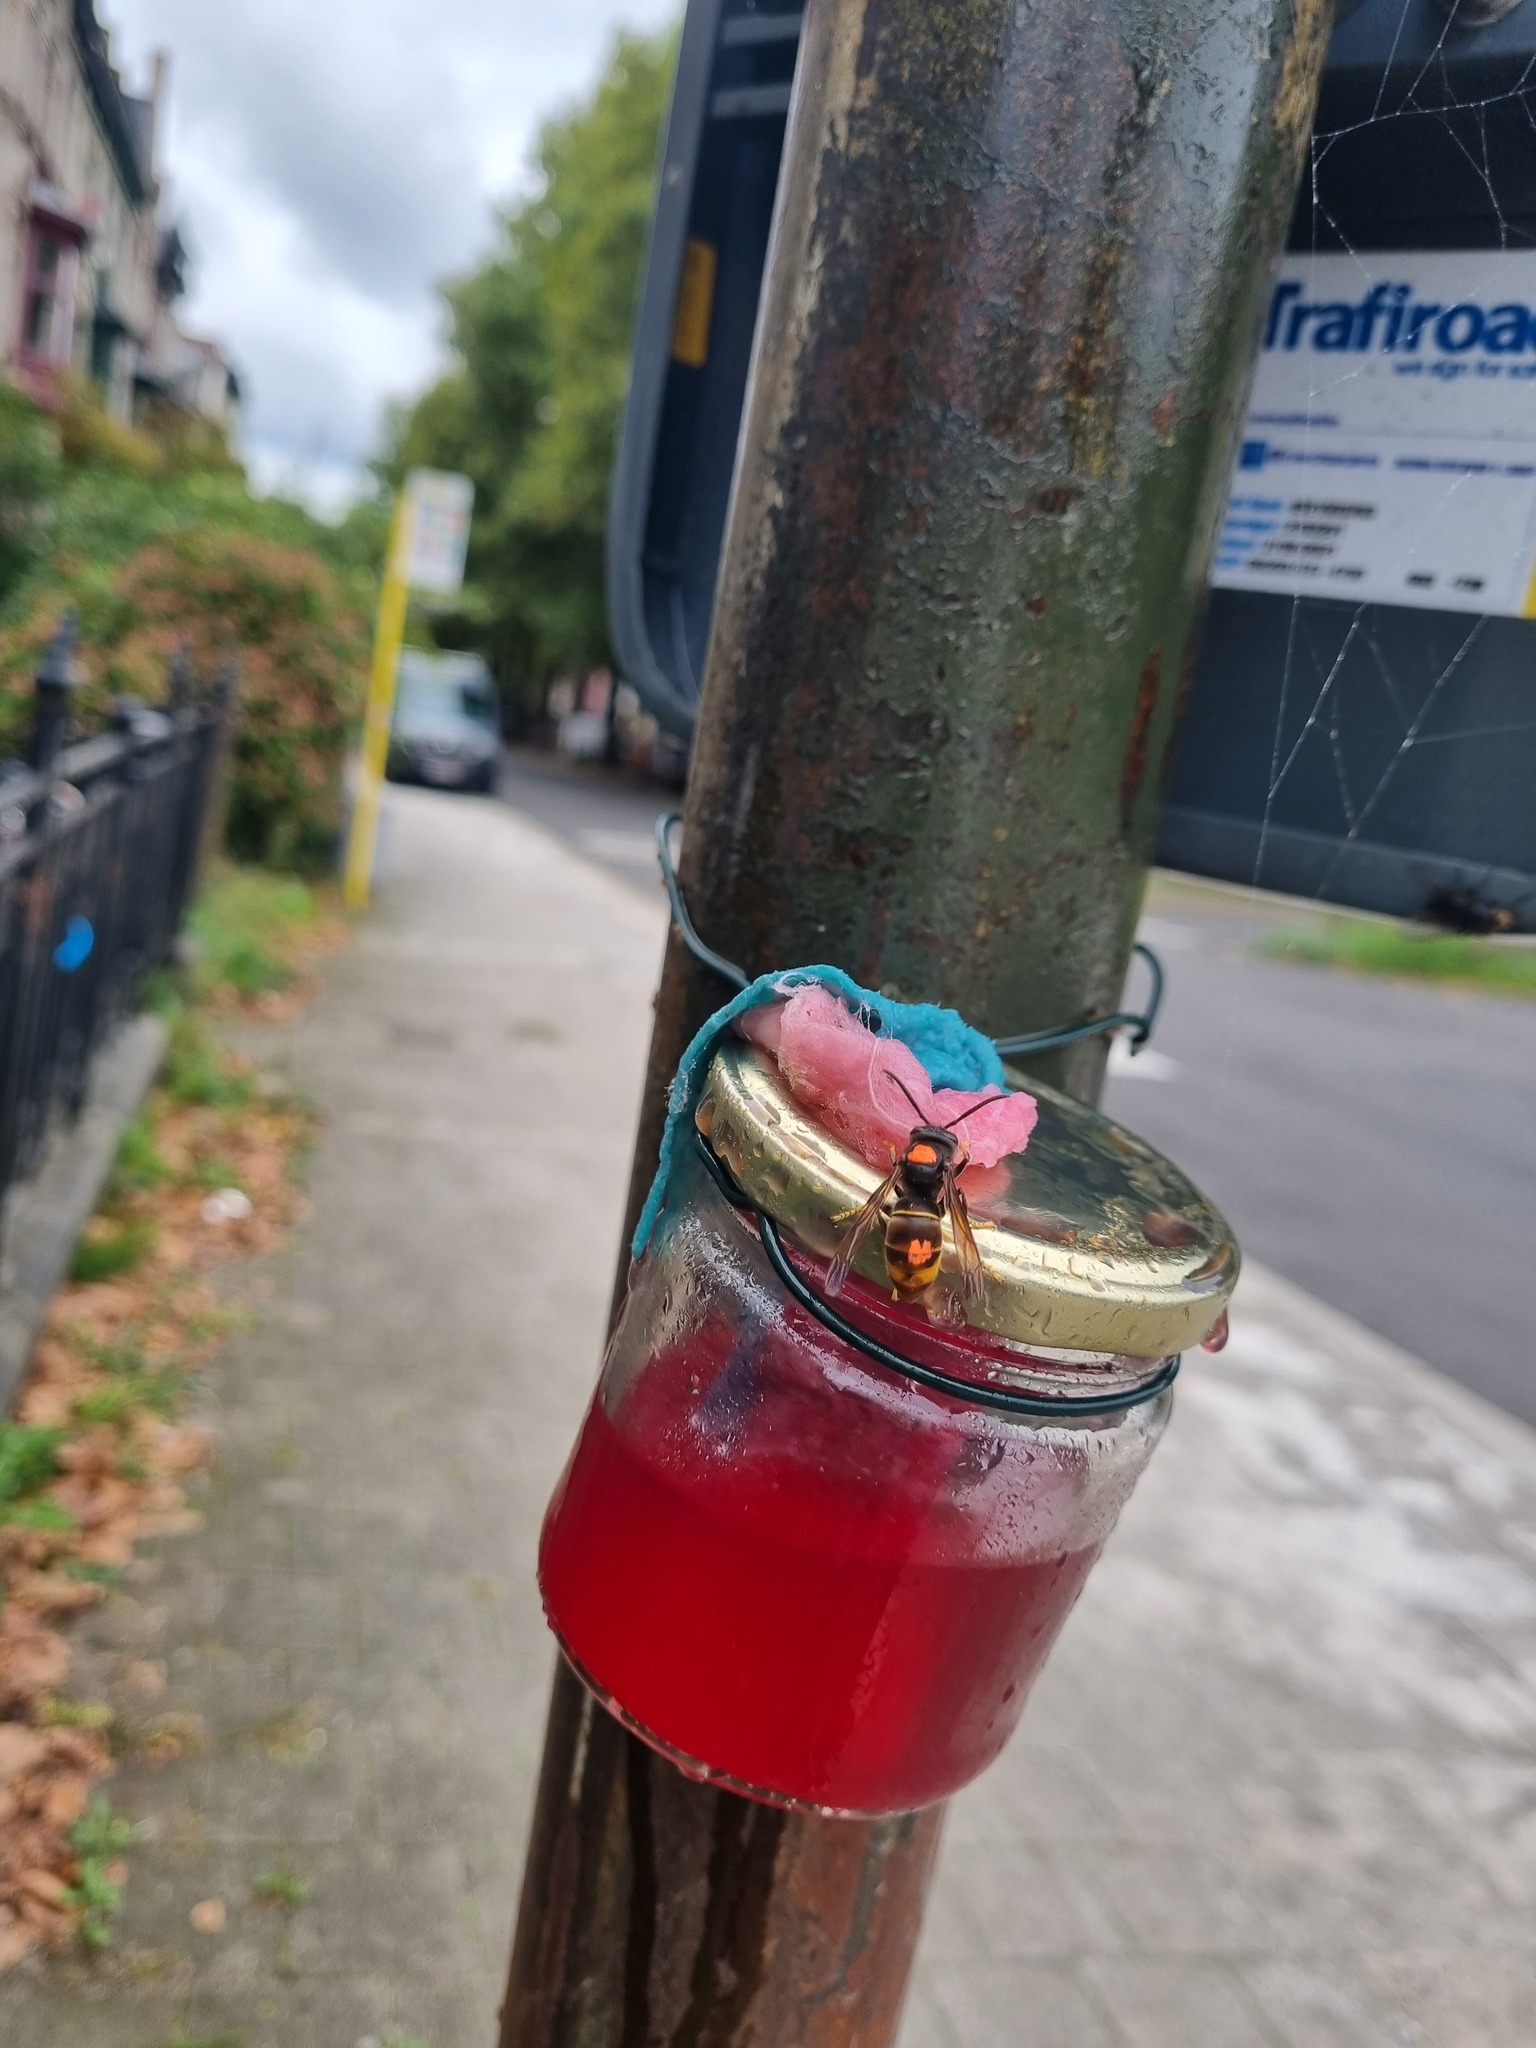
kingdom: Animalia
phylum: Arthropoda
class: Insecta
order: Hymenoptera
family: Vespidae
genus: Vespa
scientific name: Vespa velutina
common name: Asian hornet
